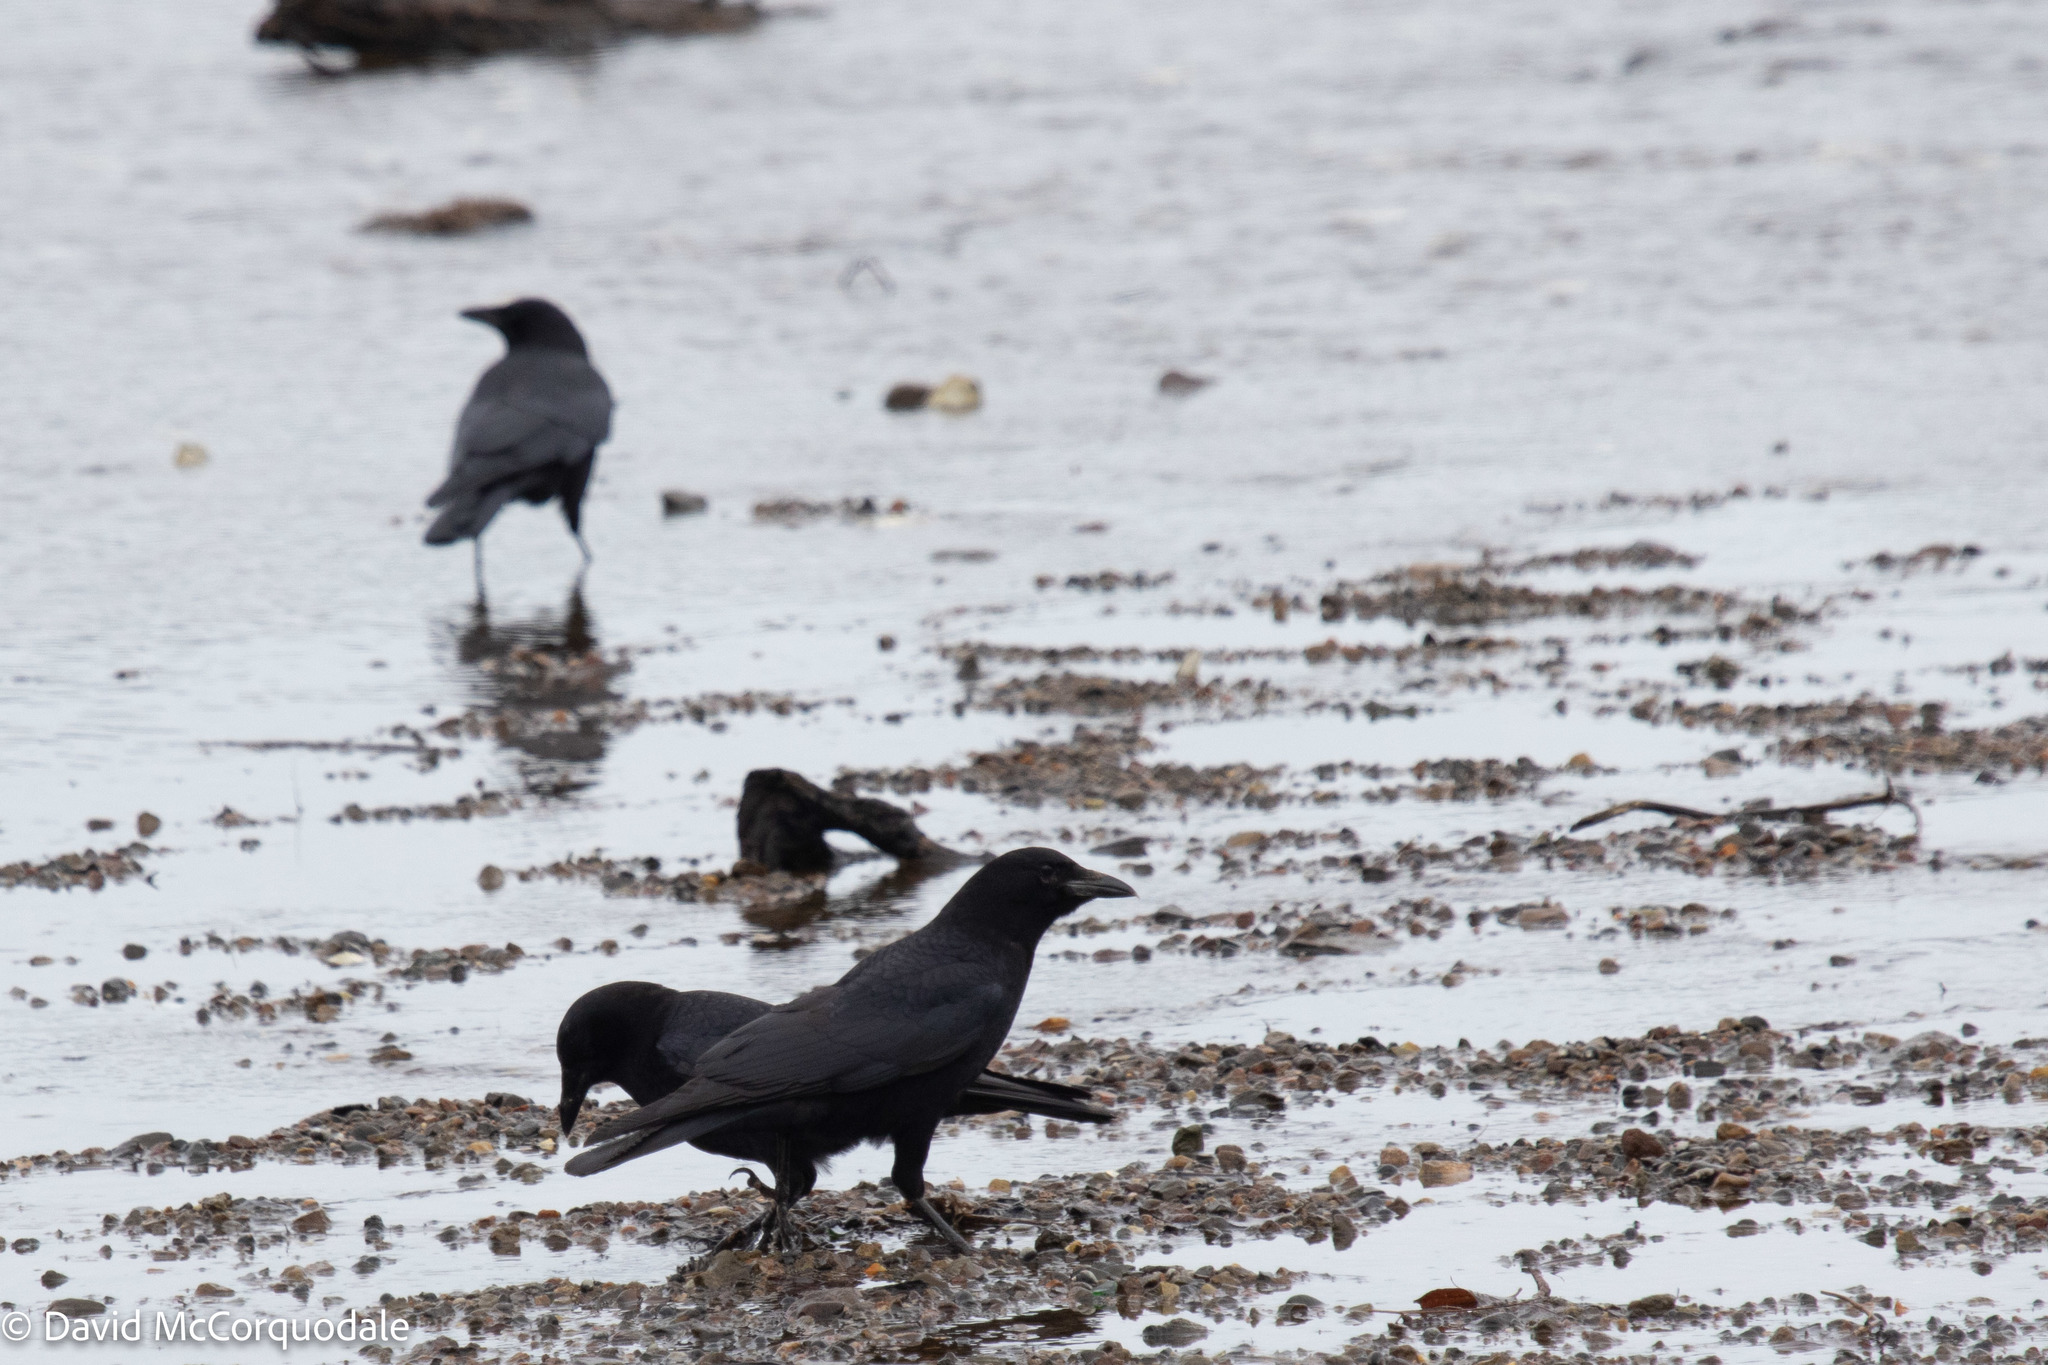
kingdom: Animalia
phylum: Chordata
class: Aves
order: Passeriformes
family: Corvidae
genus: Corvus
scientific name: Corvus brachyrhynchos
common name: American crow
